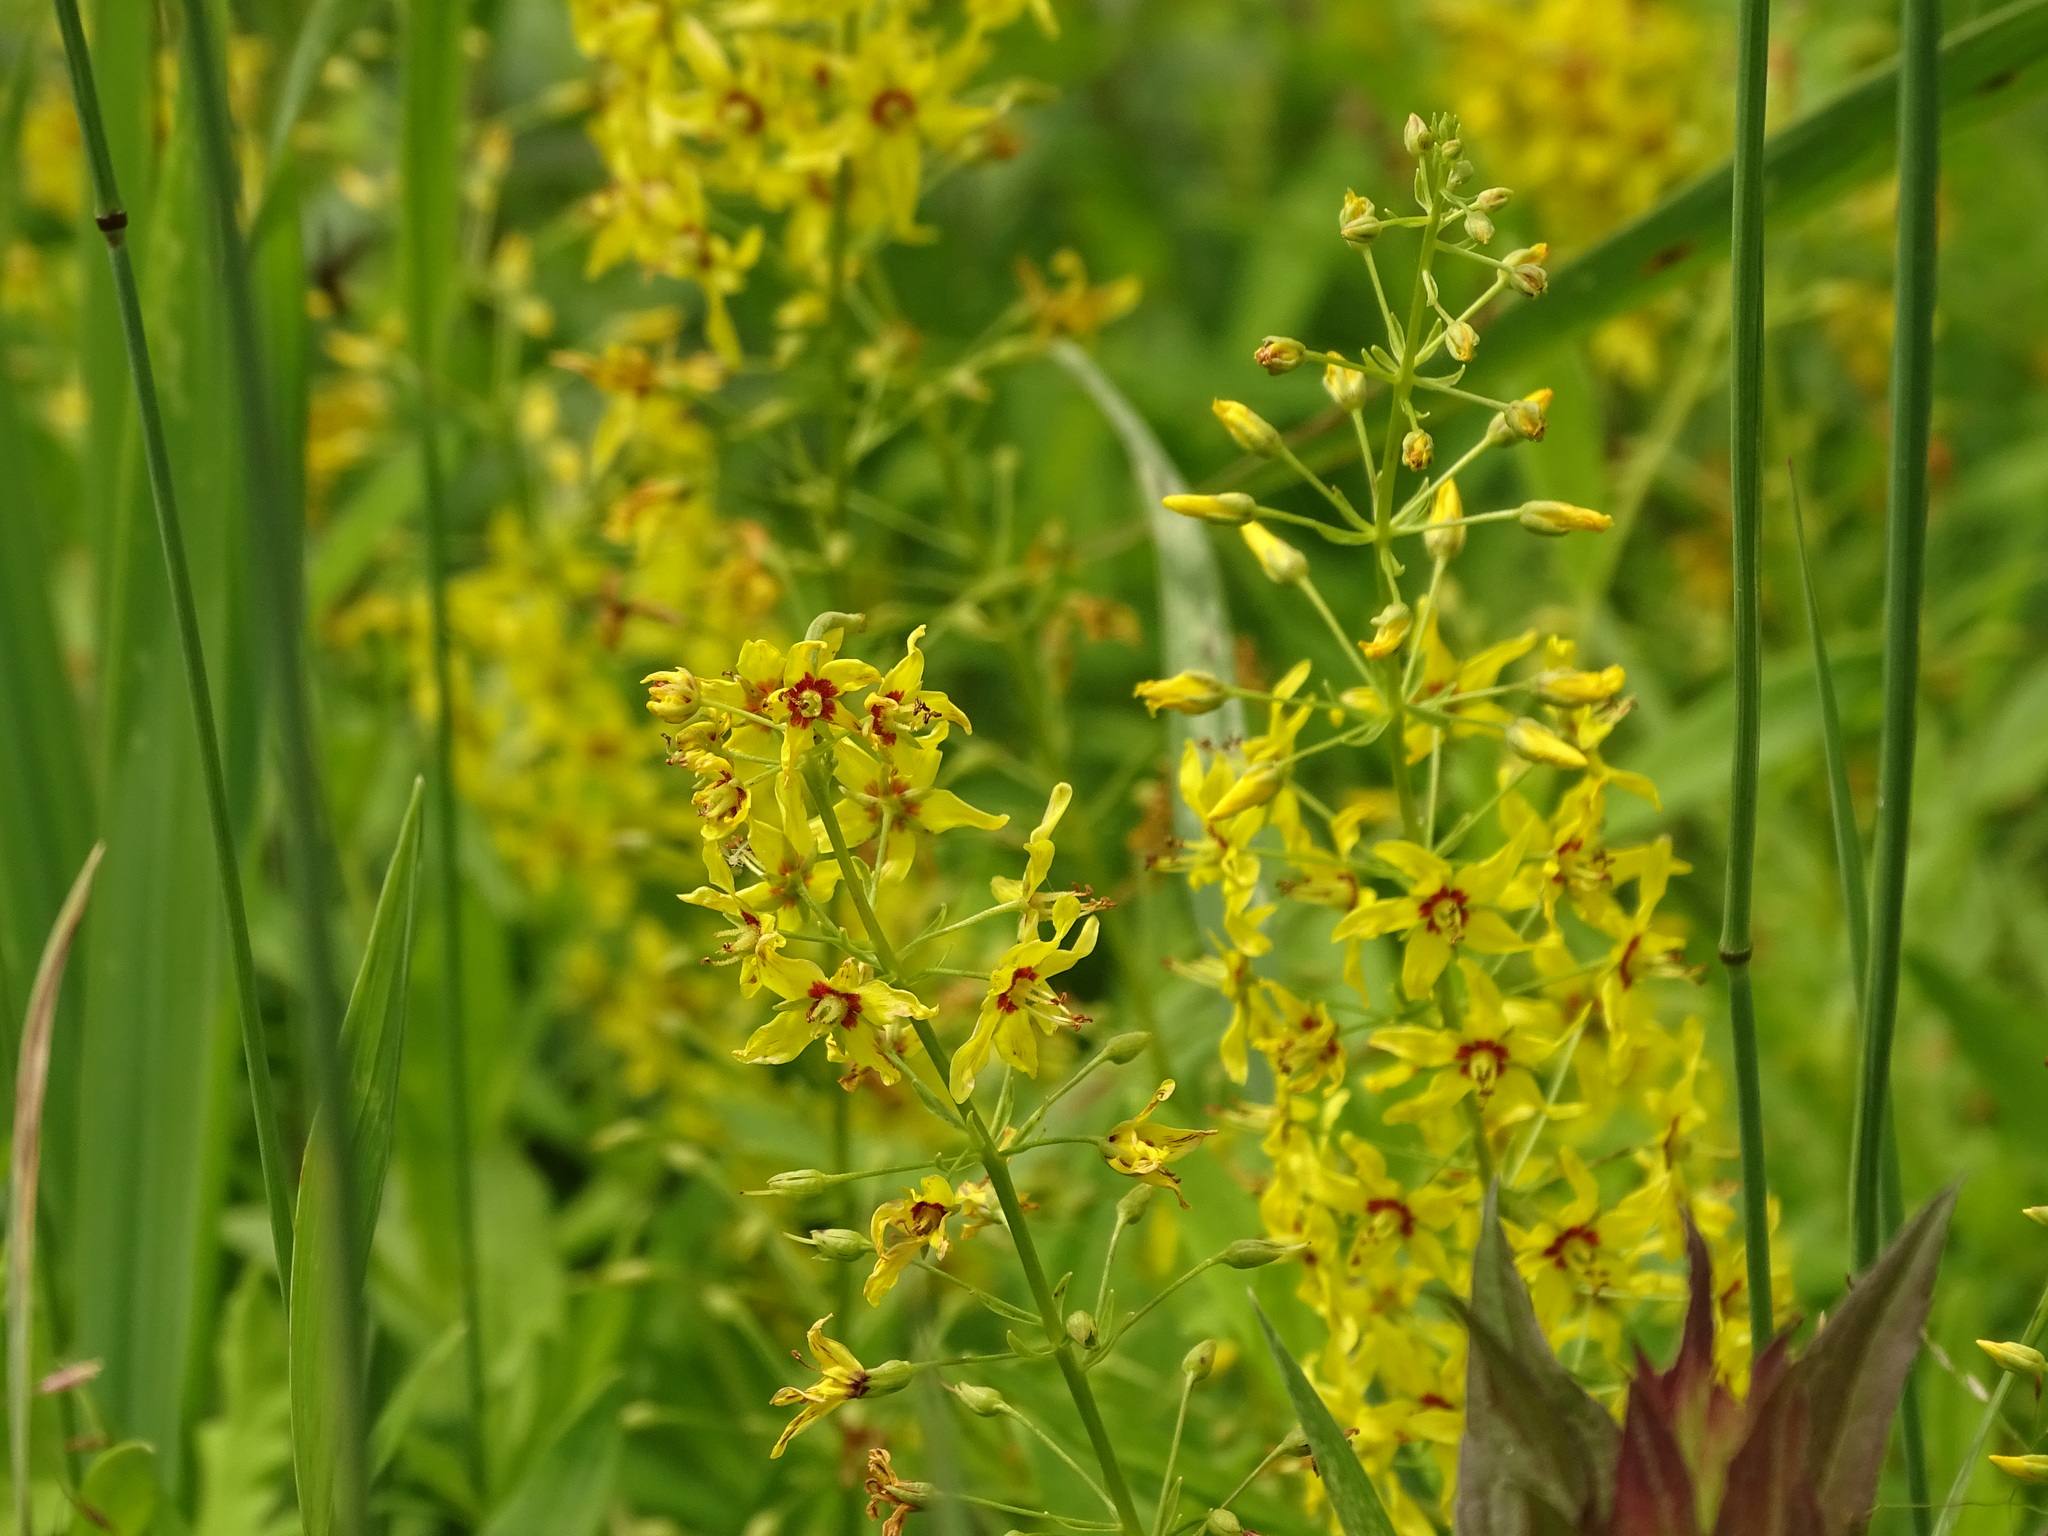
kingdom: Plantae
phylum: Tracheophyta
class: Magnoliopsida
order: Ericales
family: Primulaceae
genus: Lysimachia
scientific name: Lysimachia terrestris
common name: Lake loosestrife
